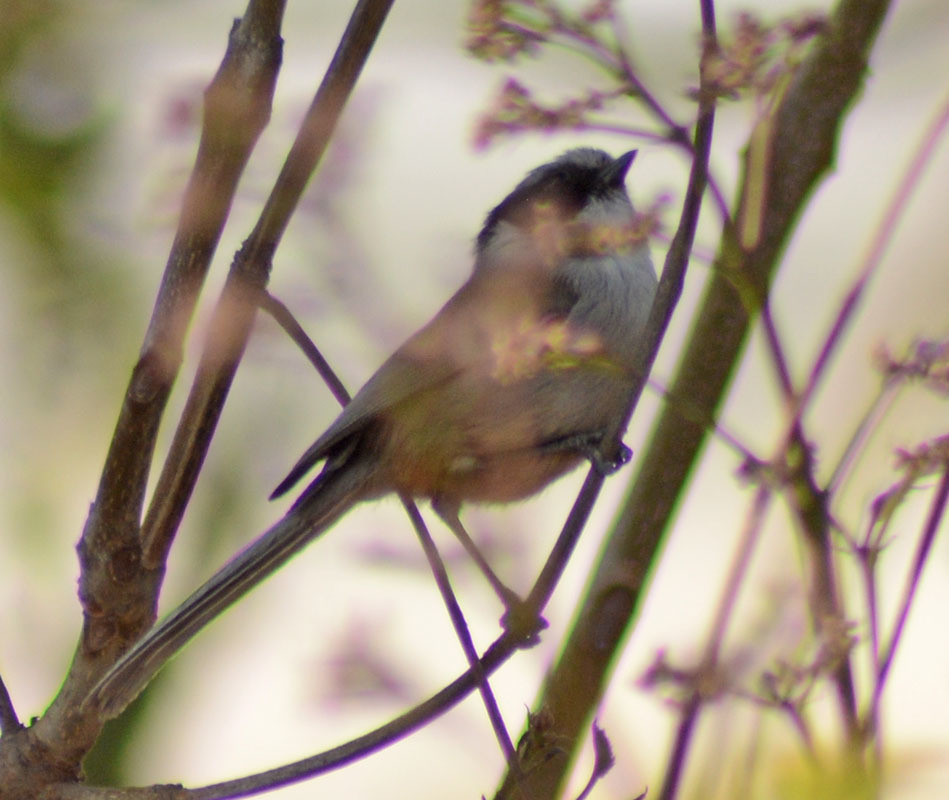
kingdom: Animalia
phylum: Chordata
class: Aves
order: Passeriformes
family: Aegithalidae
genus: Psaltriparus
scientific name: Psaltriparus minimus
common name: American bushtit
